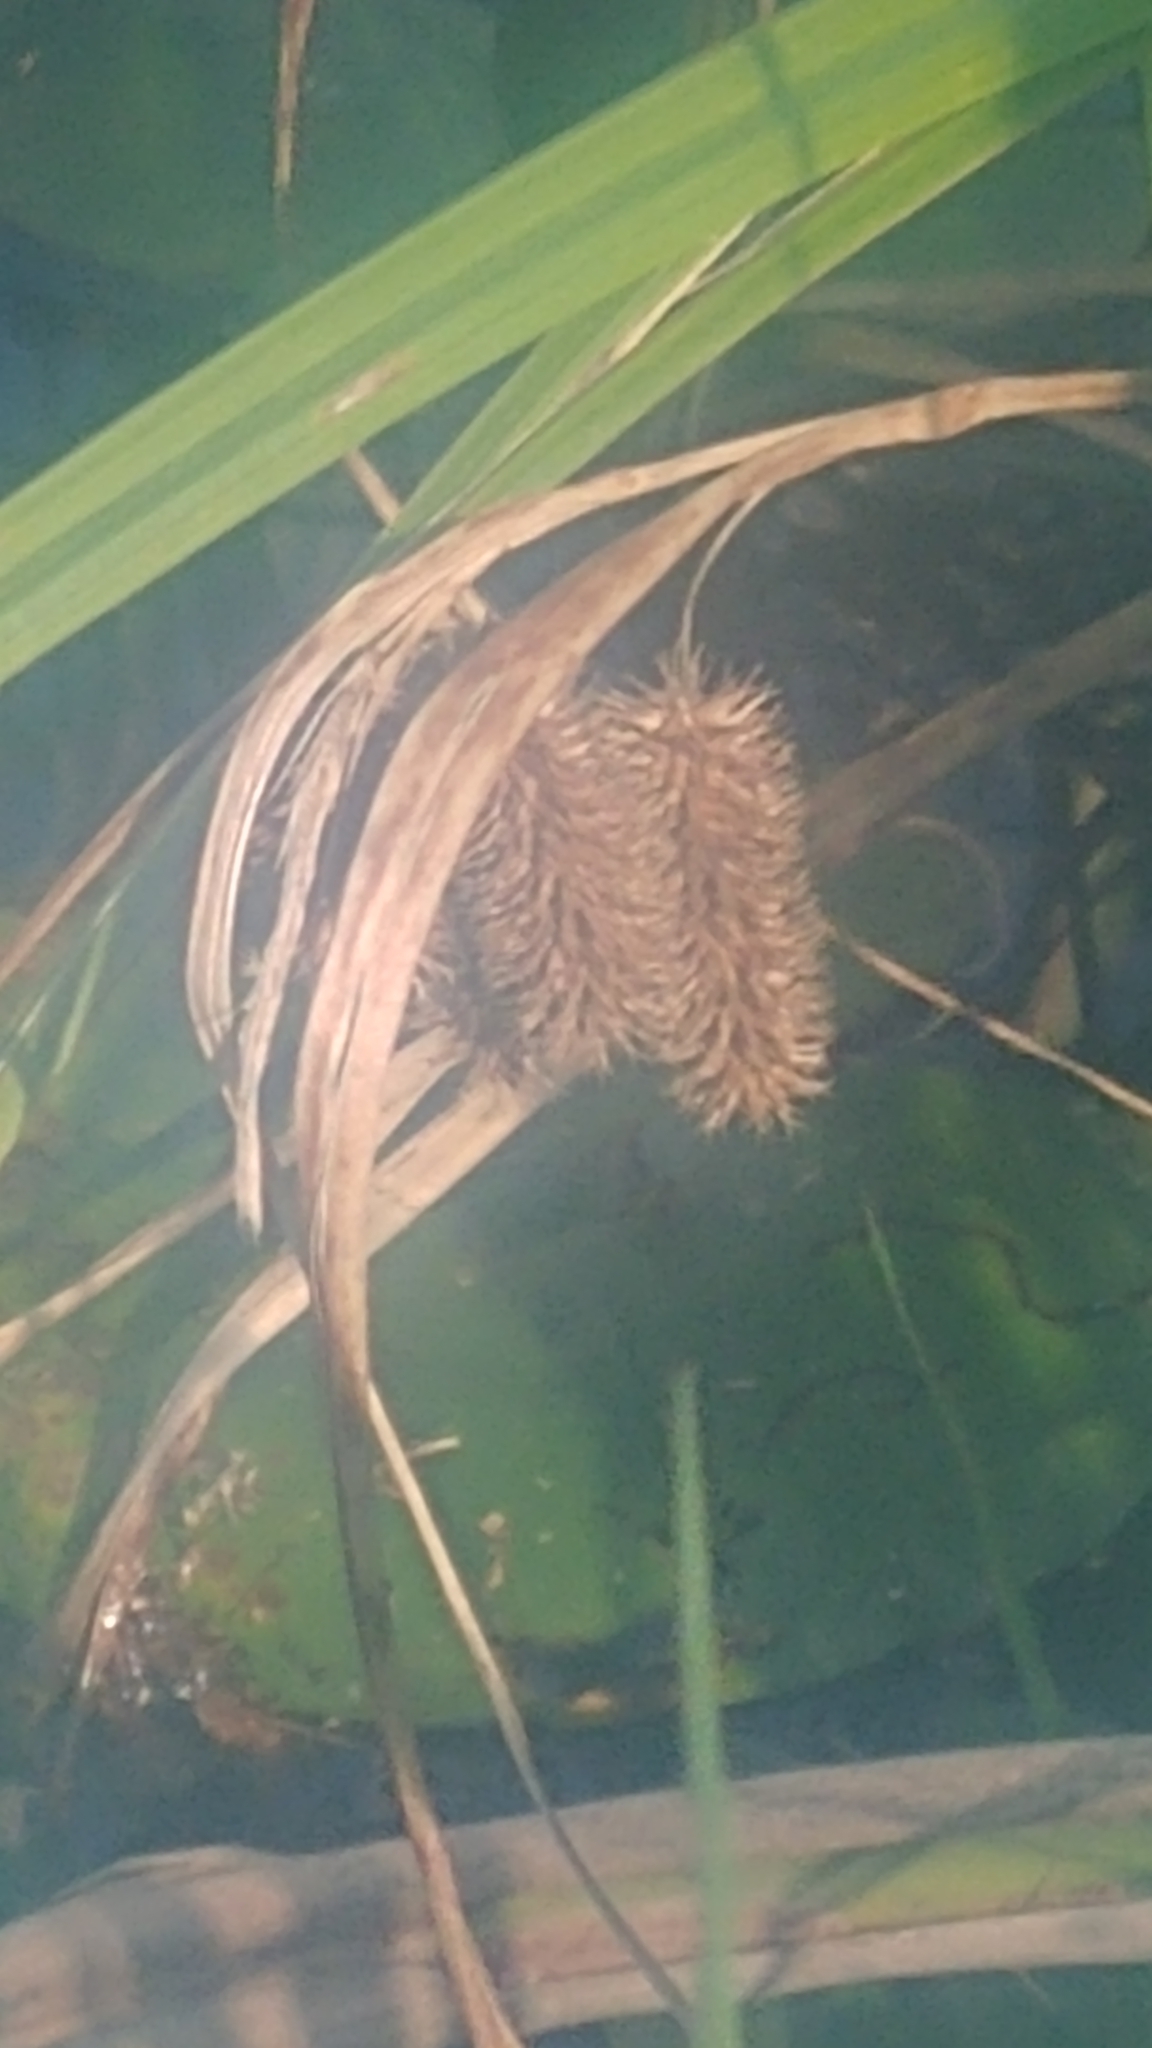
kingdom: Plantae
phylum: Tracheophyta
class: Liliopsida
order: Poales
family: Cyperaceae
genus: Carex
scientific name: Carex comosa
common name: Bristly sedge
